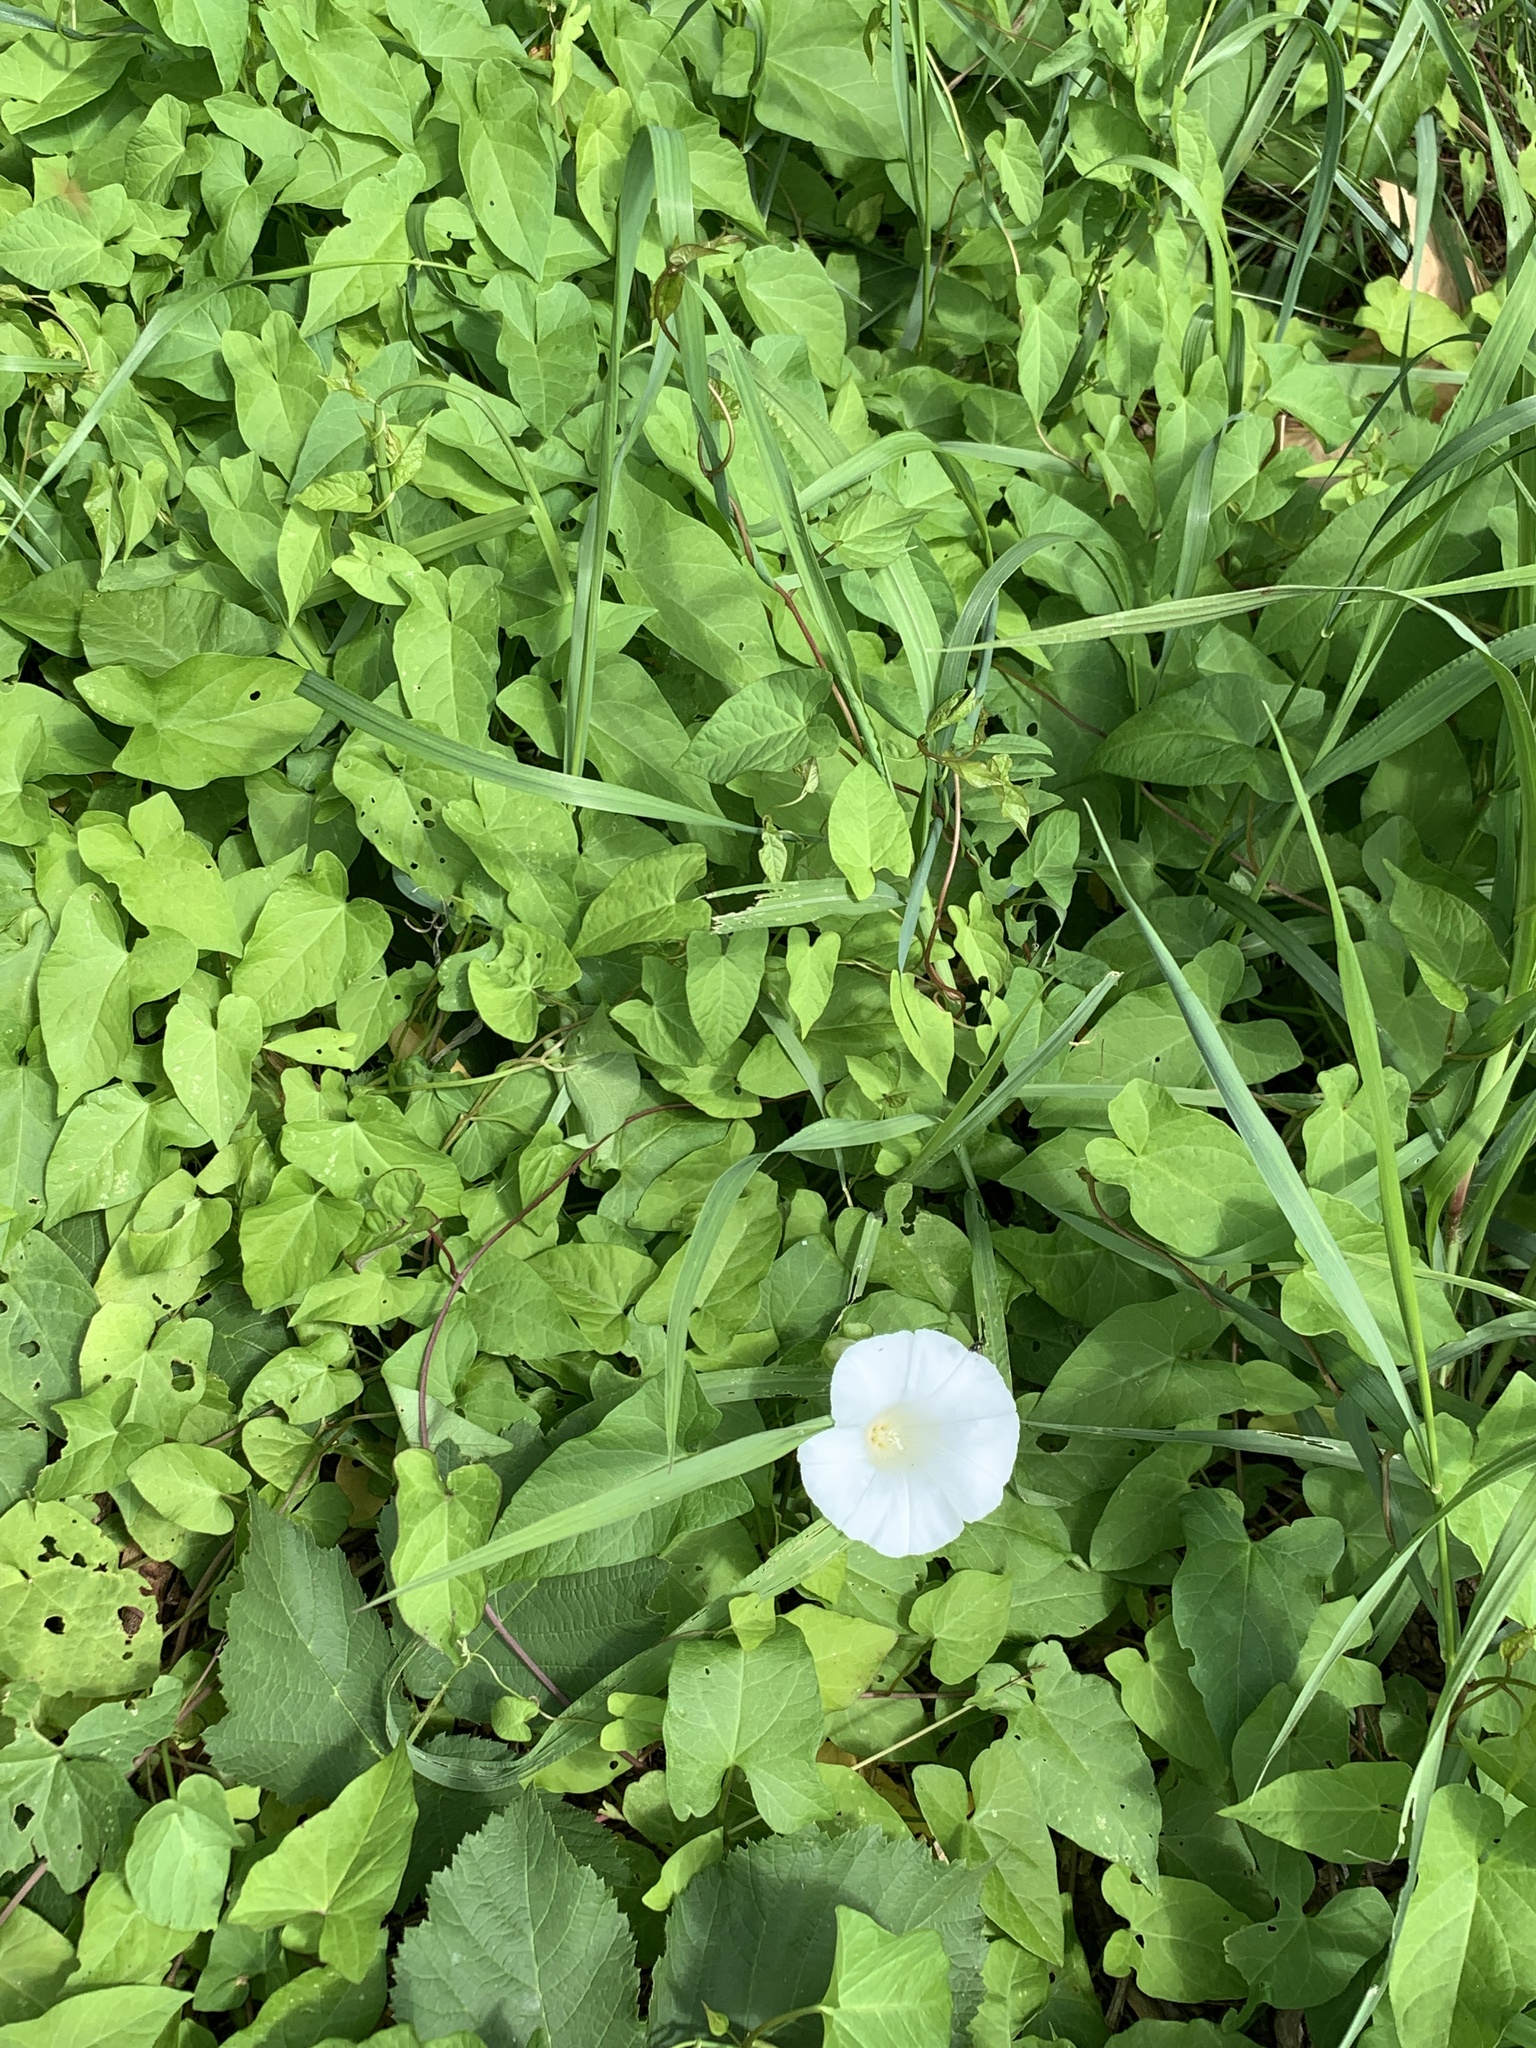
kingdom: Plantae
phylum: Tracheophyta
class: Magnoliopsida
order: Solanales
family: Convolvulaceae
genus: Calystegia
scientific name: Calystegia sepium
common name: Hedge bindweed
